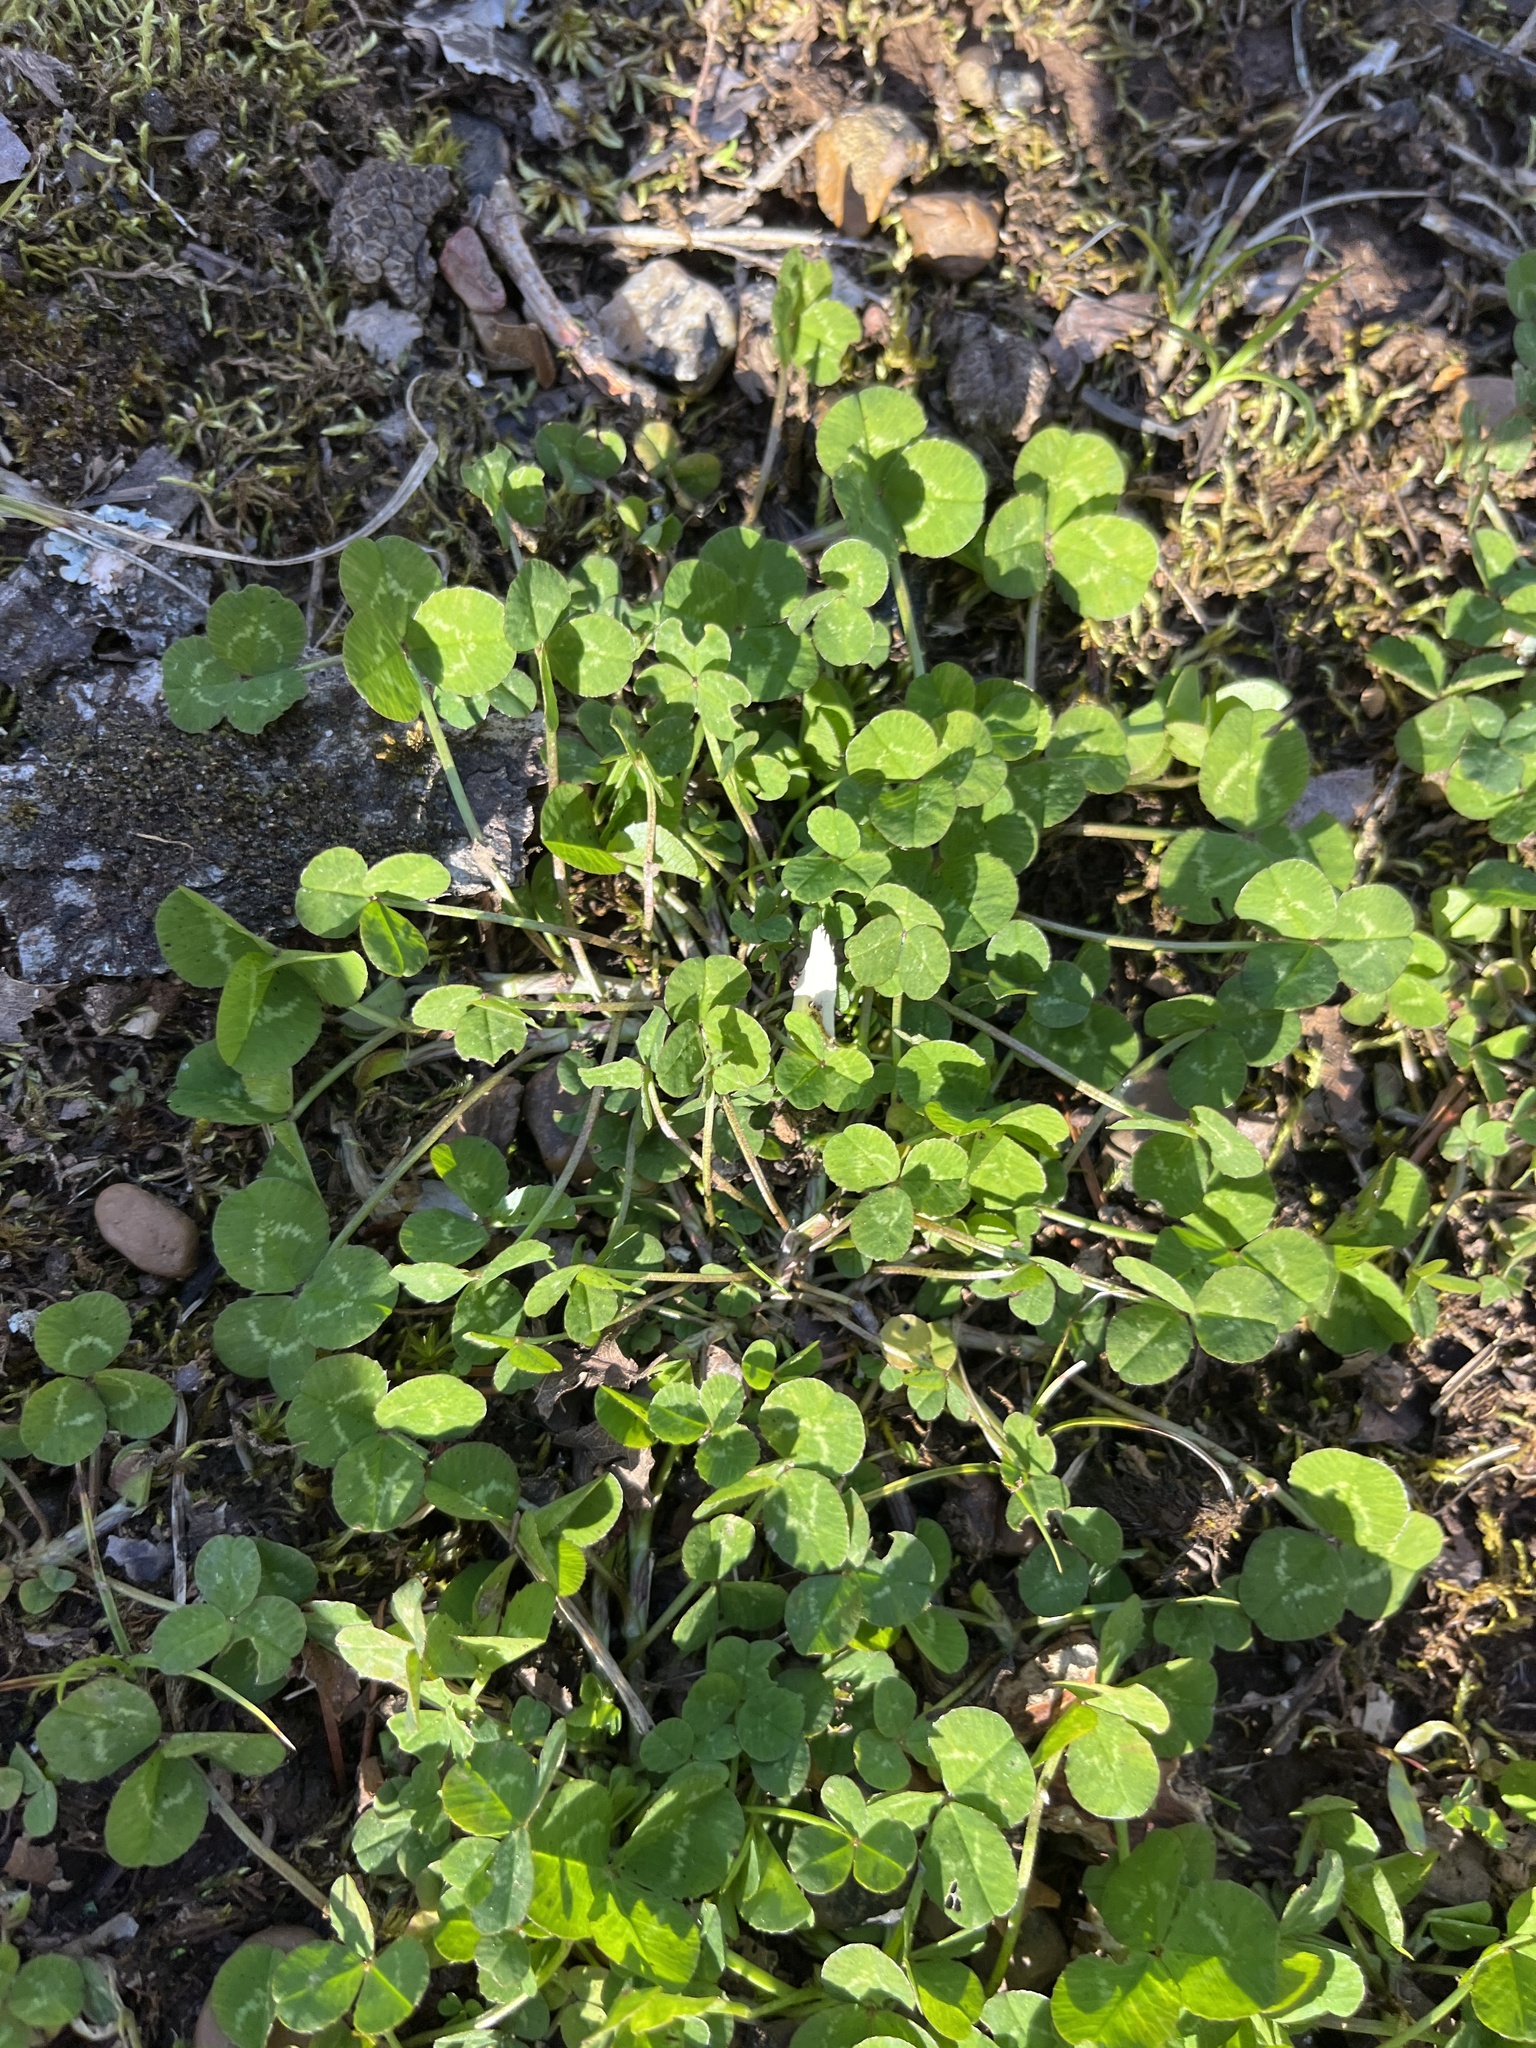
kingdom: Plantae
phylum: Tracheophyta
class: Magnoliopsida
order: Fabales
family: Fabaceae
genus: Trifolium
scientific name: Trifolium repens
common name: White clover
